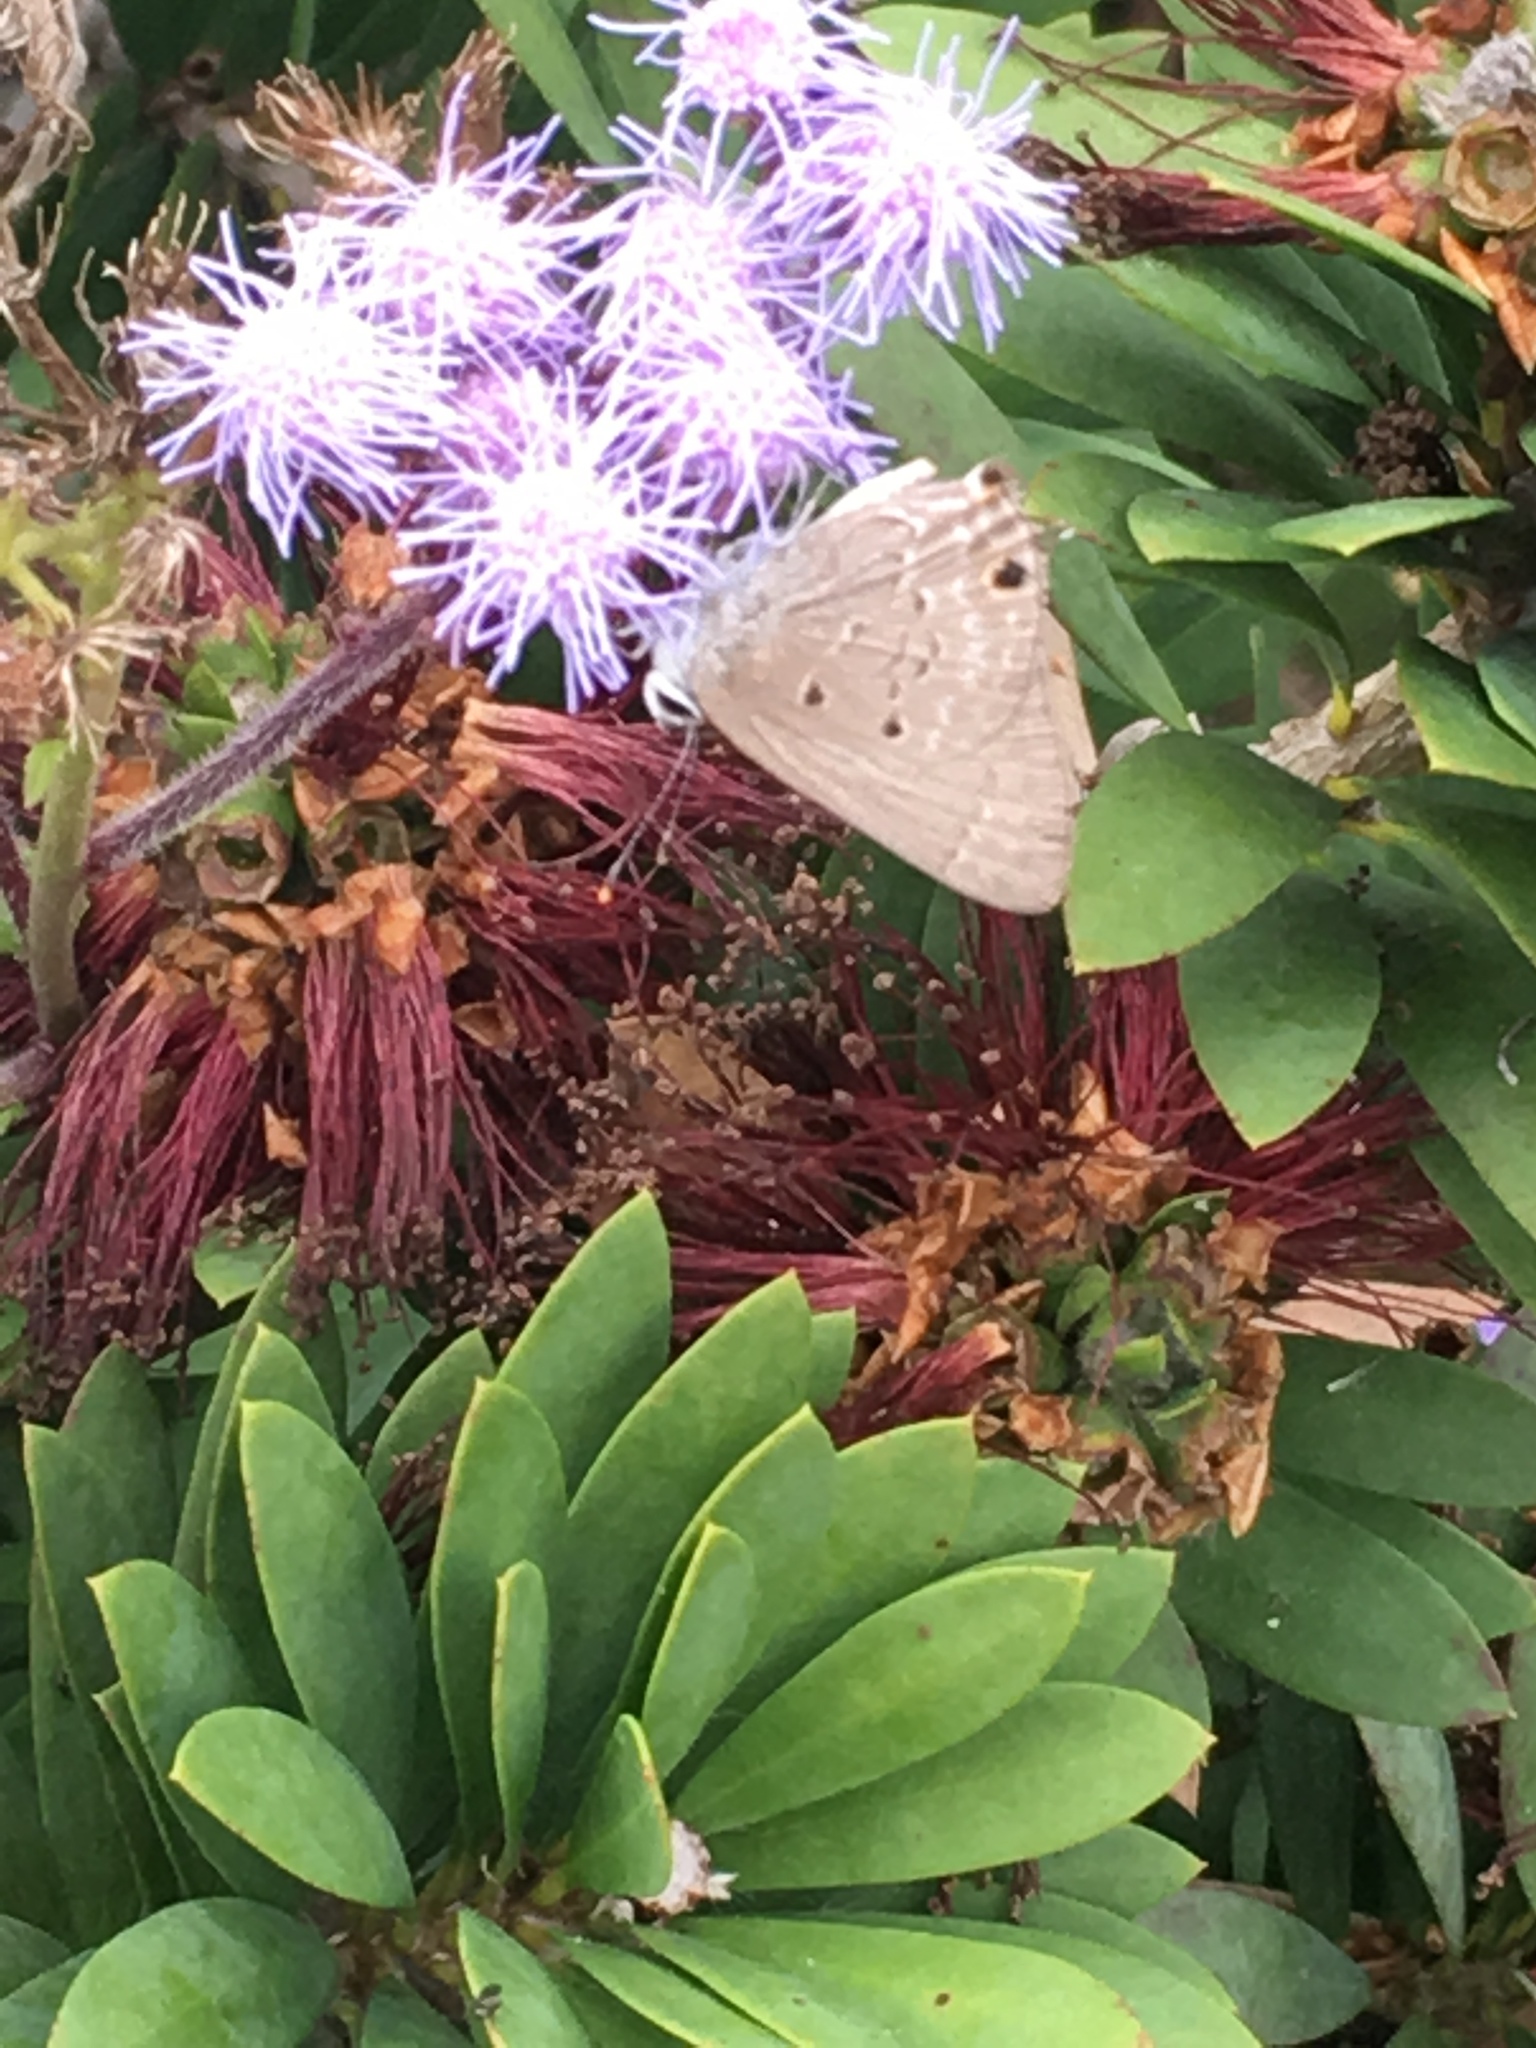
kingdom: Animalia
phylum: Arthropoda
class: Insecta
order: Lepidoptera
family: Lycaenidae
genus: Callicista
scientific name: Callicista columella
